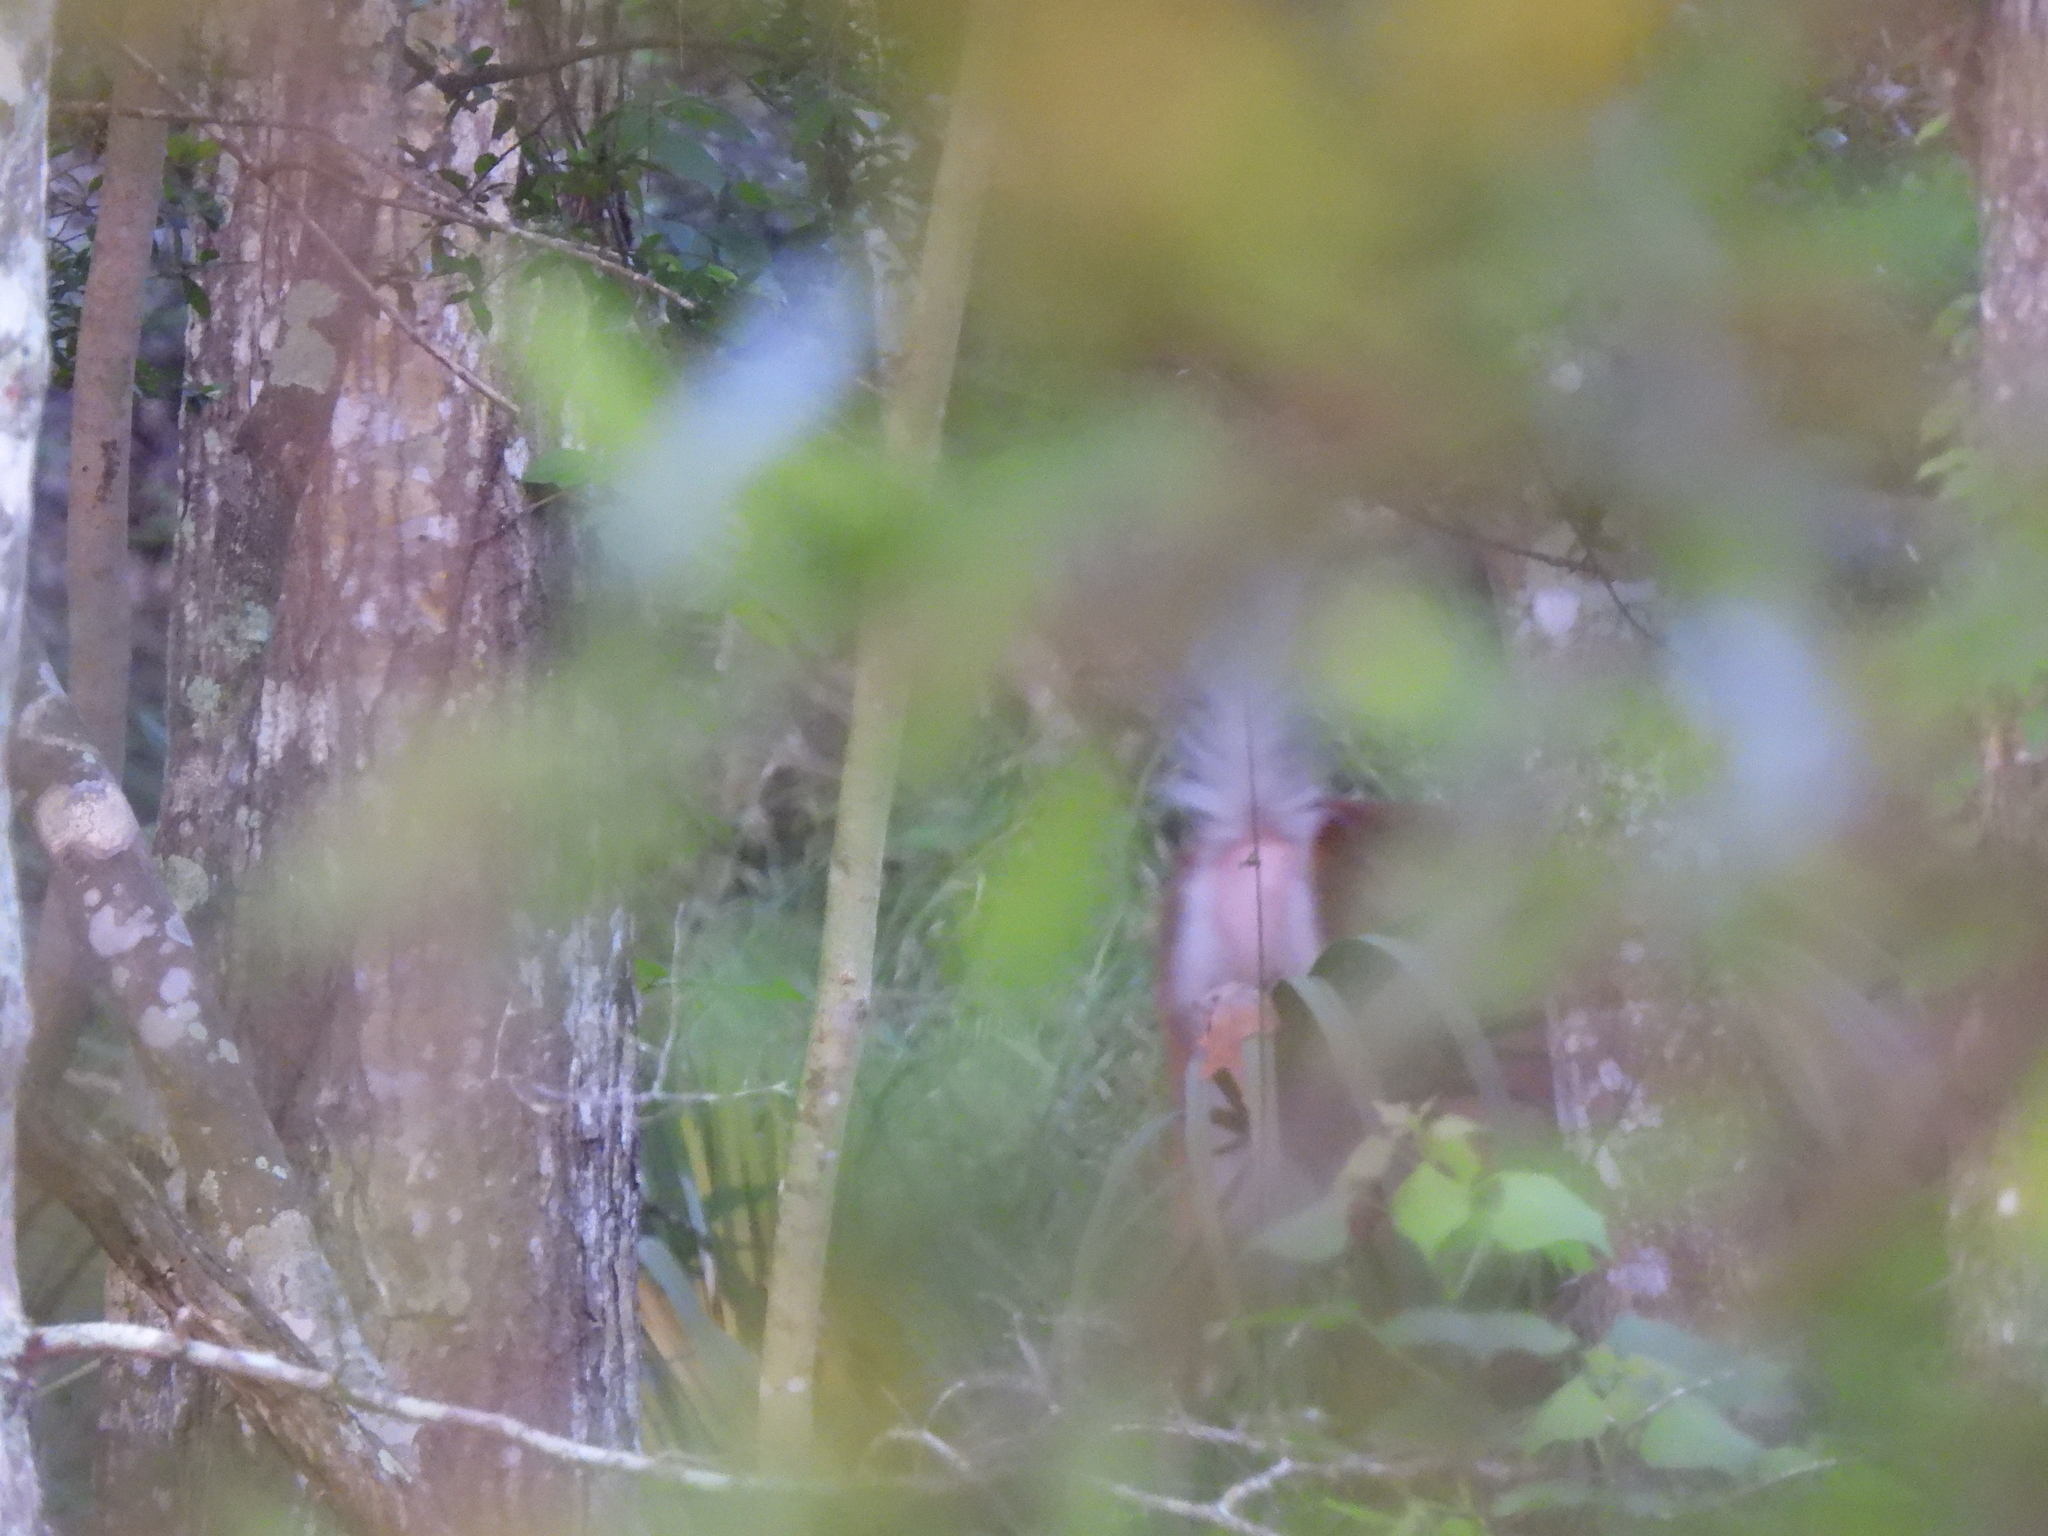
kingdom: Animalia
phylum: Chordata
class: Mammalia
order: Artiodactyla
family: Cervidae
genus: Odocoileus
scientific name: Odocoileus virginianus
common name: White-tailed deer
